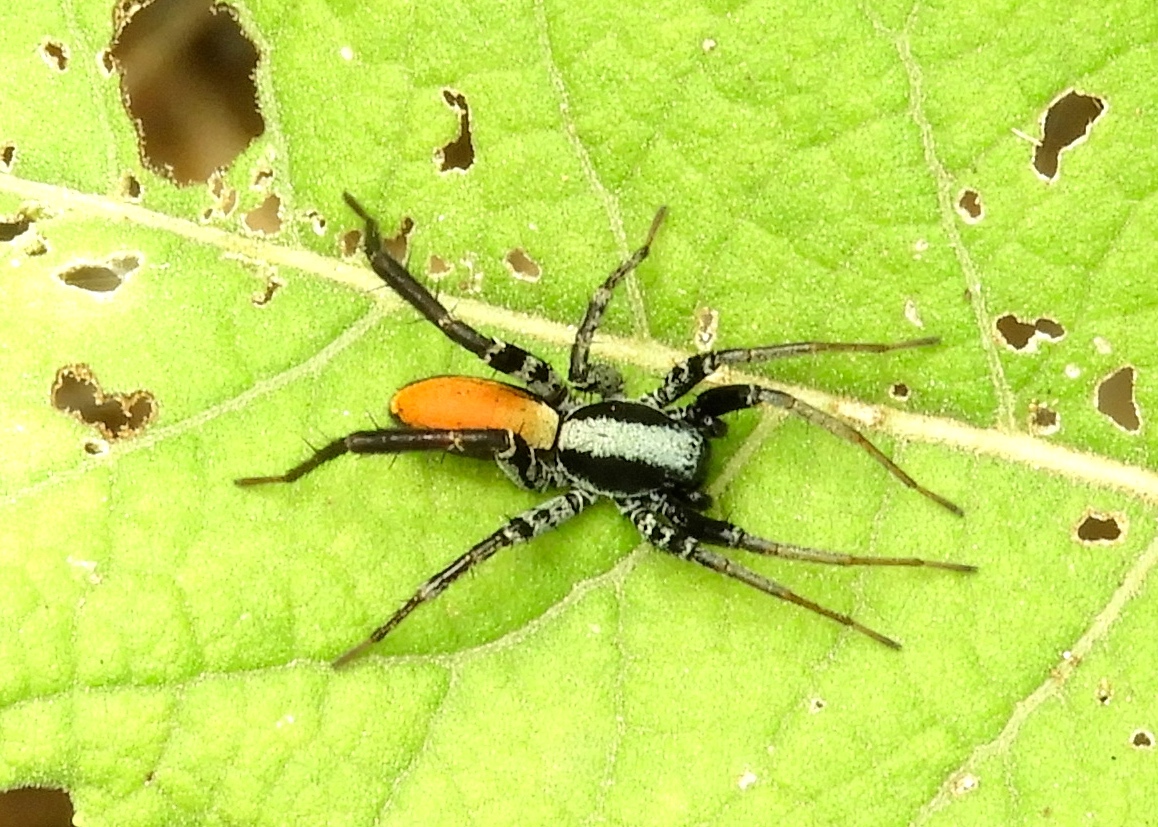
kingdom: Animalia
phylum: Arthropoda
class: Arachnida
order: Araneae
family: Corinnidae
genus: Castianeira
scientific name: Castianeira
